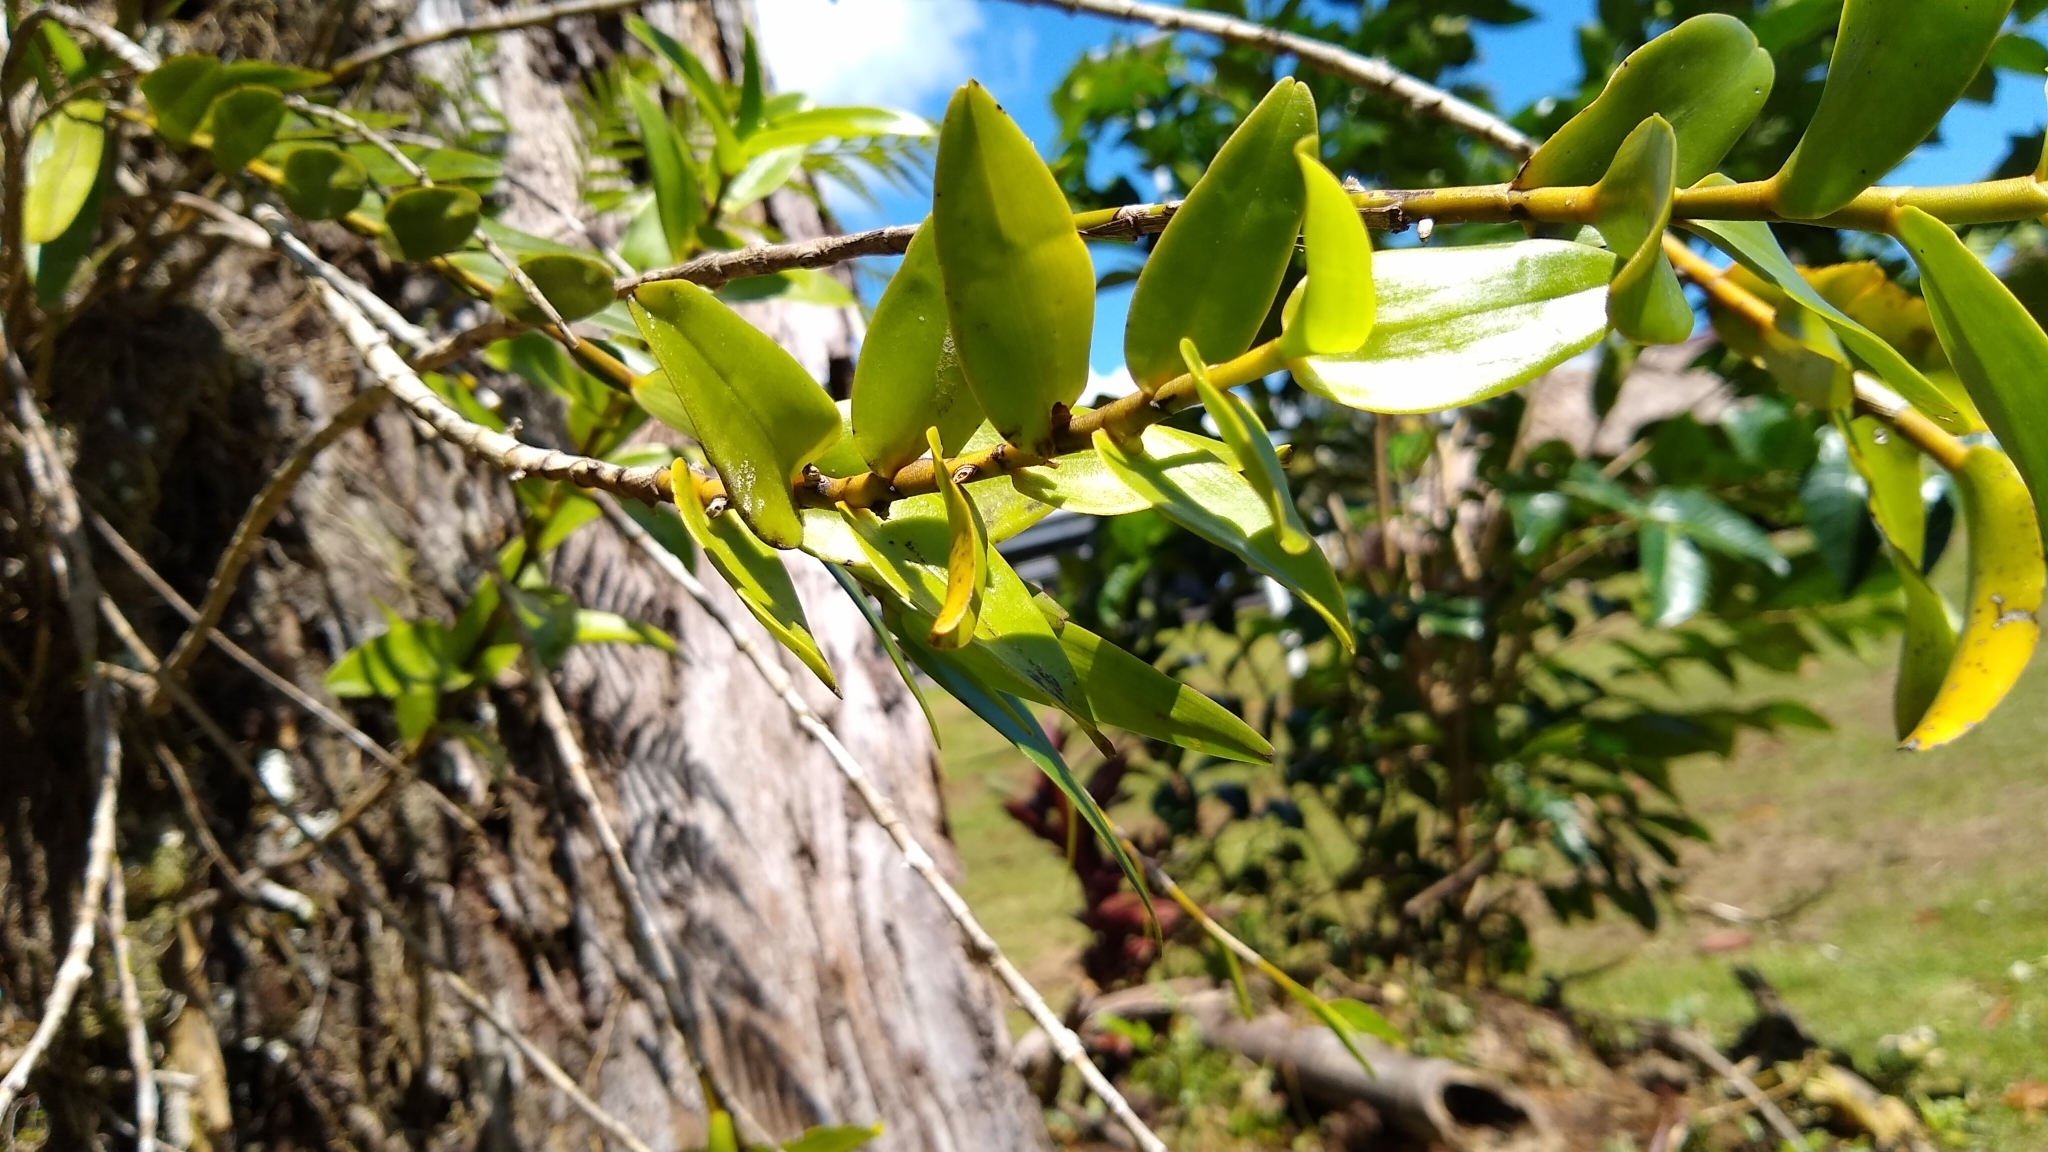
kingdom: Plantae
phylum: Tracheophyta
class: Liliopsida
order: Asparagales
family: Orchidaceae
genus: Dendrobium
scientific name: Dendrobium adamsii
